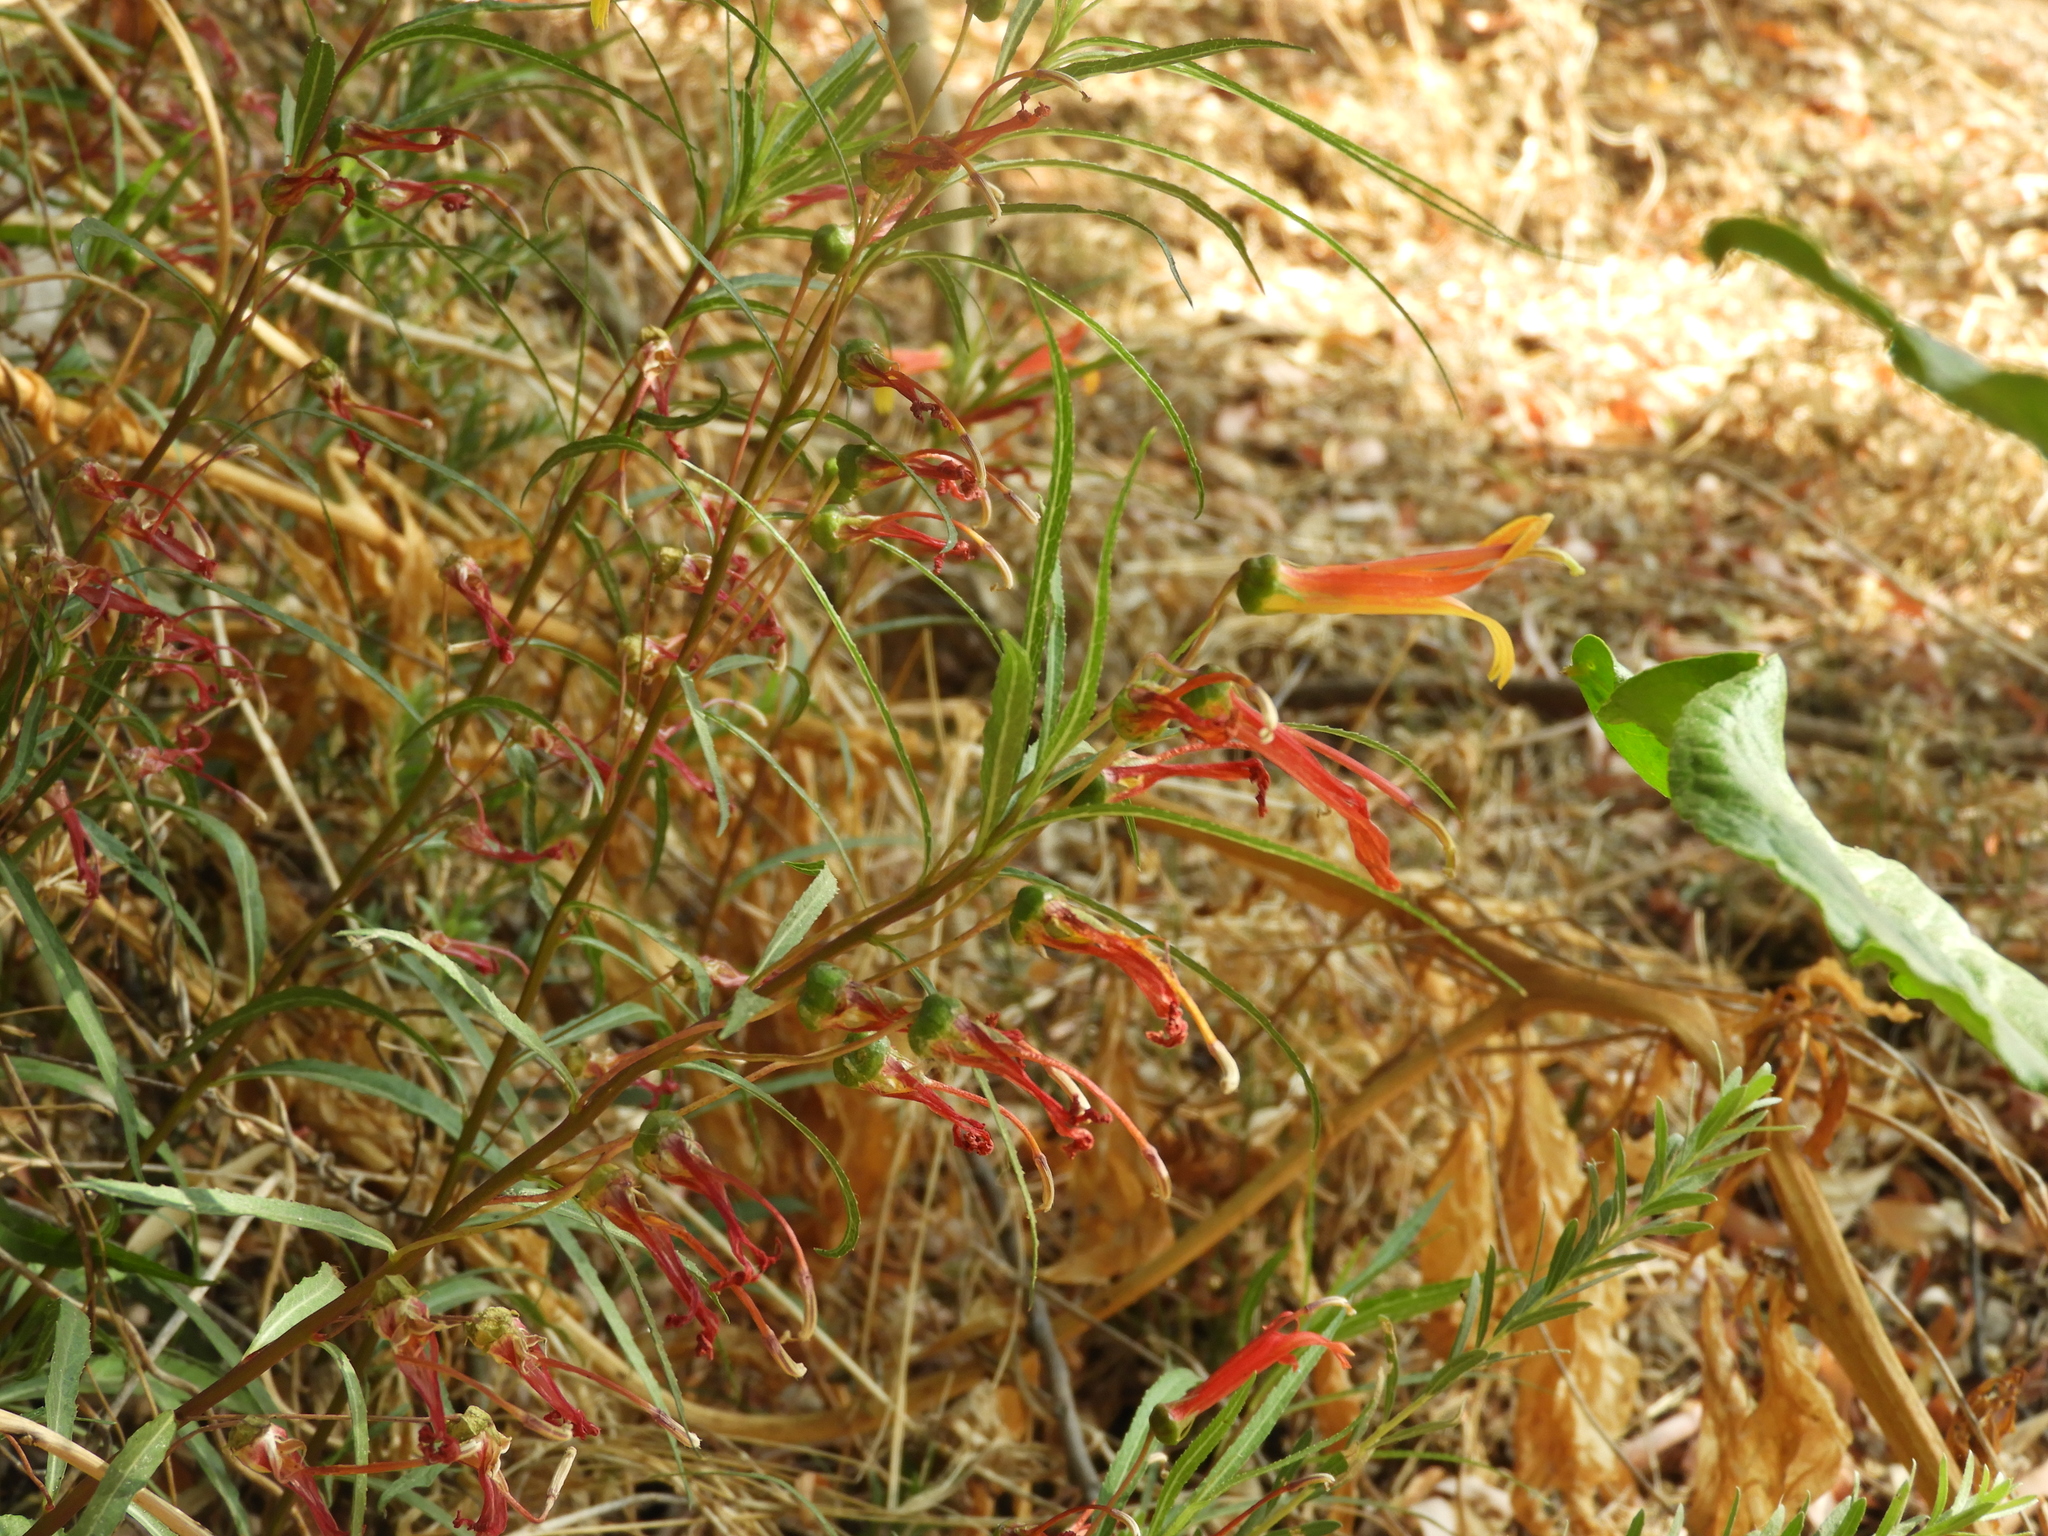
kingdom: Plantae
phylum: Tracheophyta
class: Magnoliopsida
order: Asterales
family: Campanulaceae
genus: Lobelia
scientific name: Lobelia laxiflora
